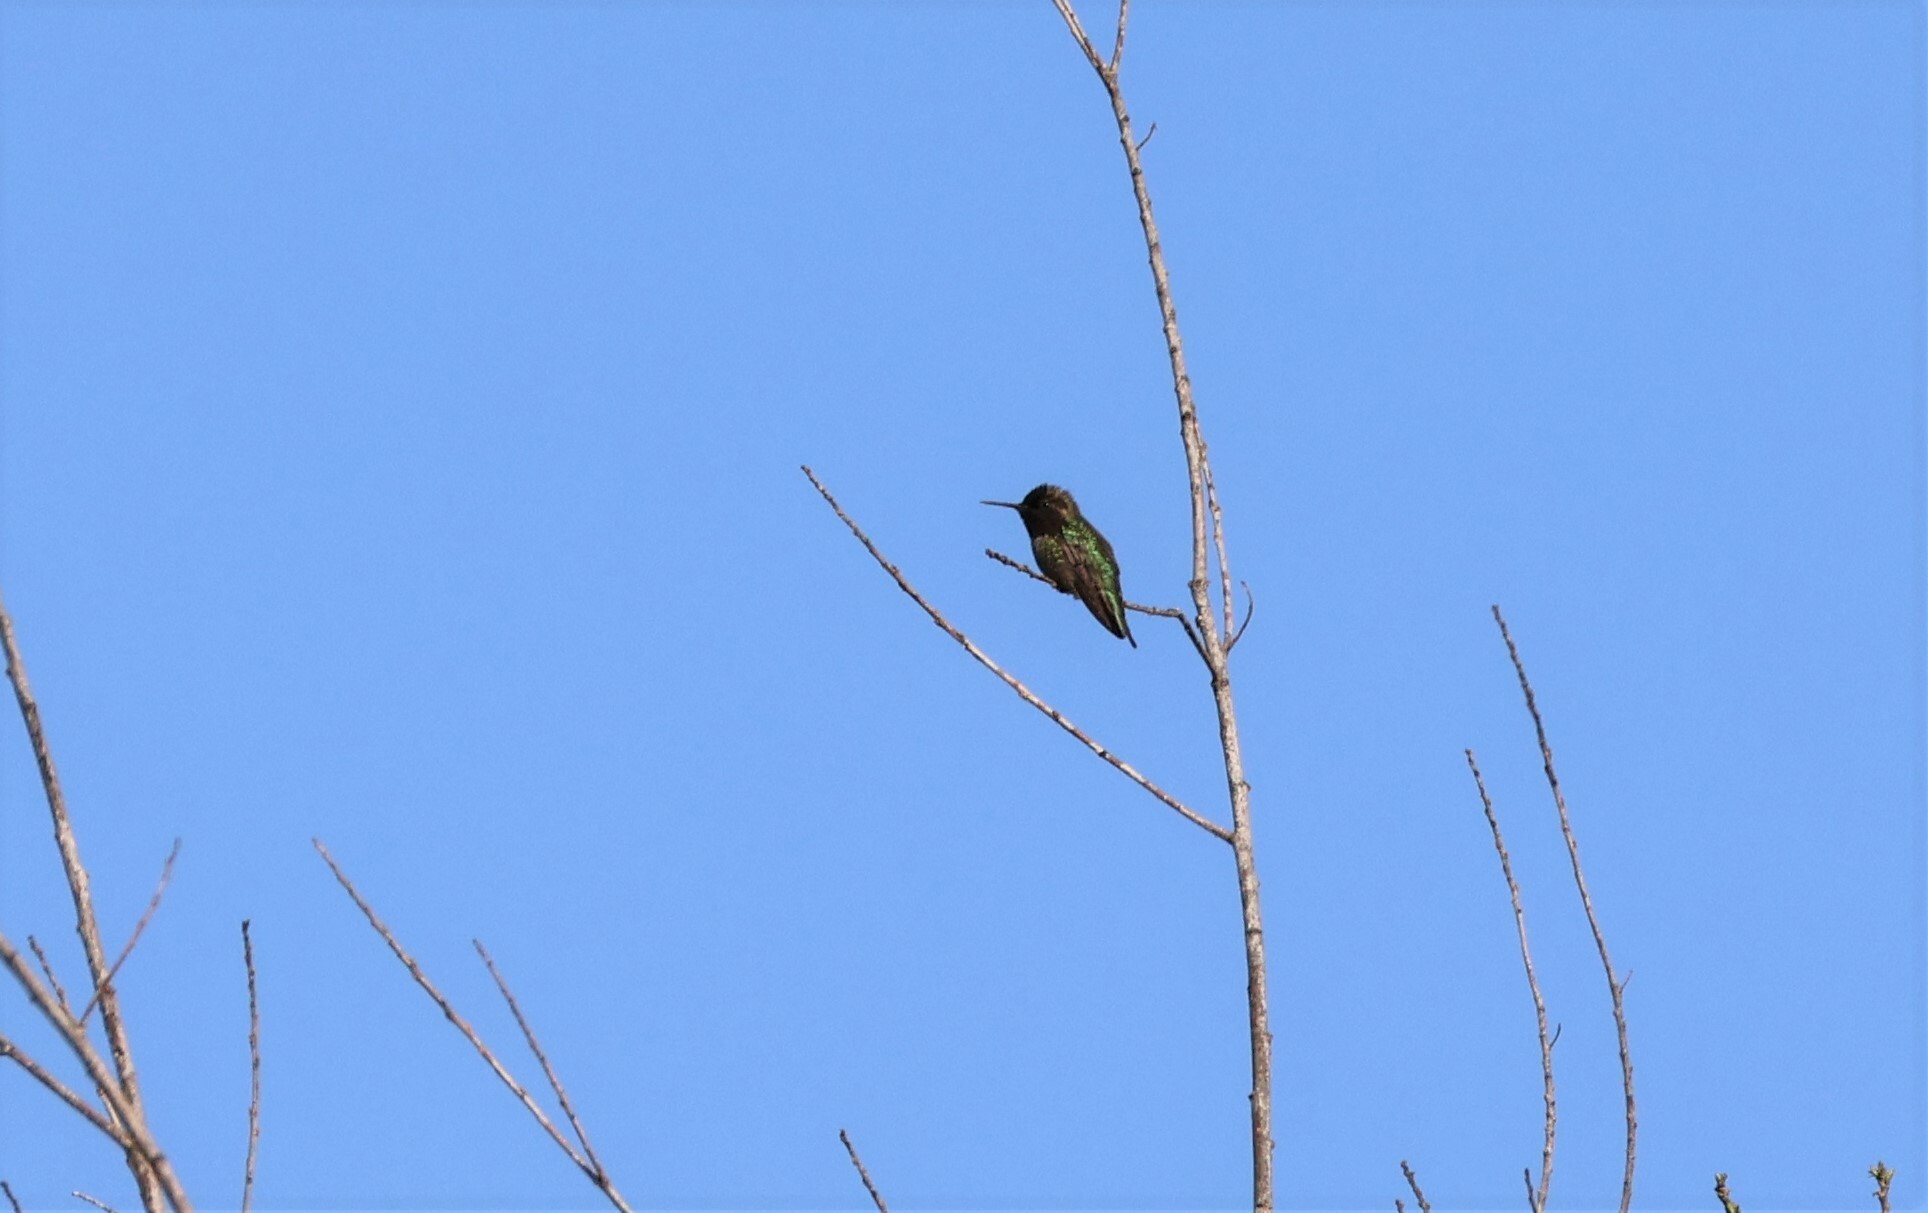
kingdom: Animalia
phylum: Chordata
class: Aves
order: Apodiformes
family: Trochilidae
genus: Calypte
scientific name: Calypte anna
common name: Anna's hummingbird
